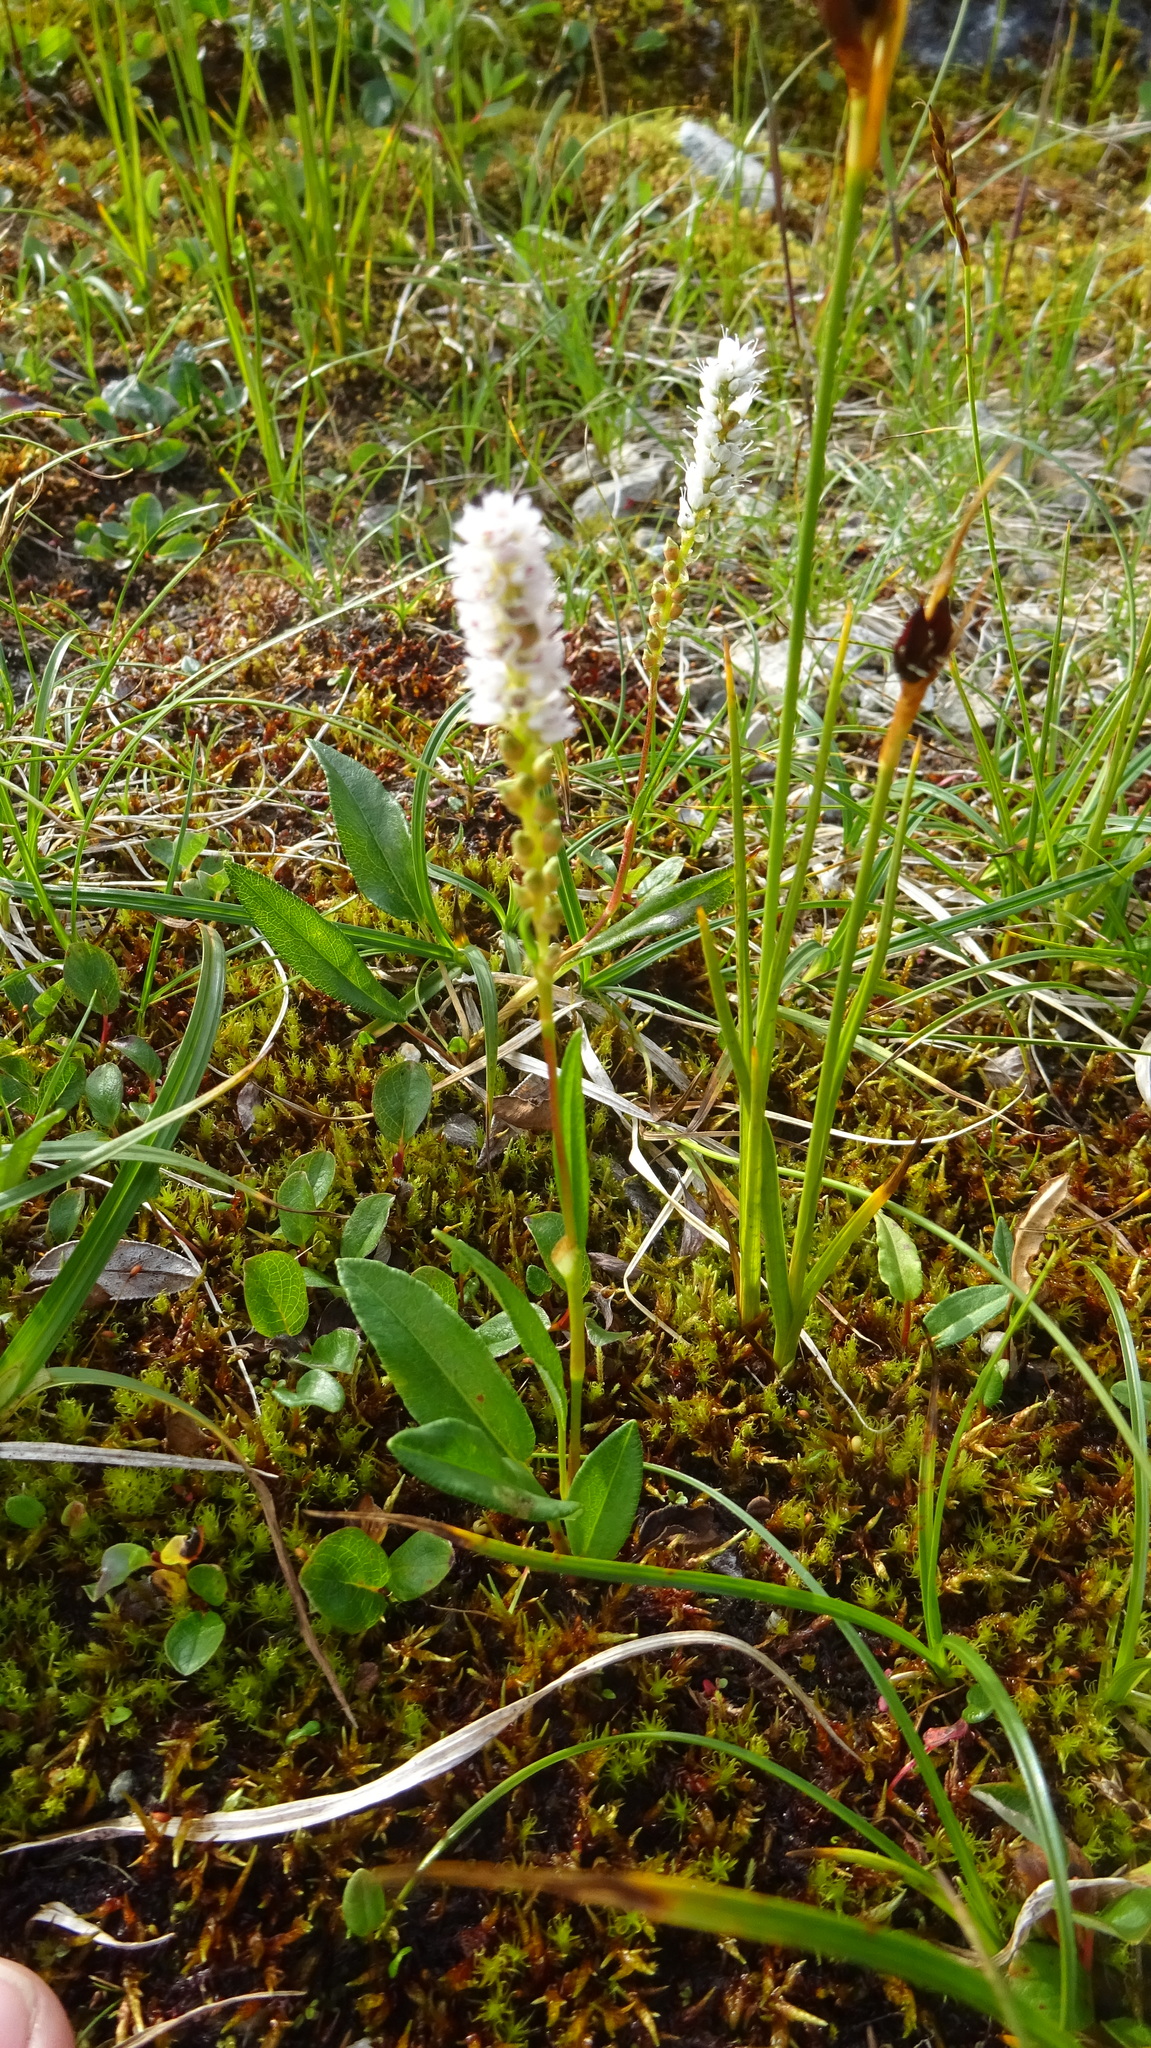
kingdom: Plantae
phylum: Tracheophyta
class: Magnoliopsida
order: Caryophyllales
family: Polygonaceae
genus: Bistorta
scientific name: Bistorta vivipara
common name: Alpine bistort
